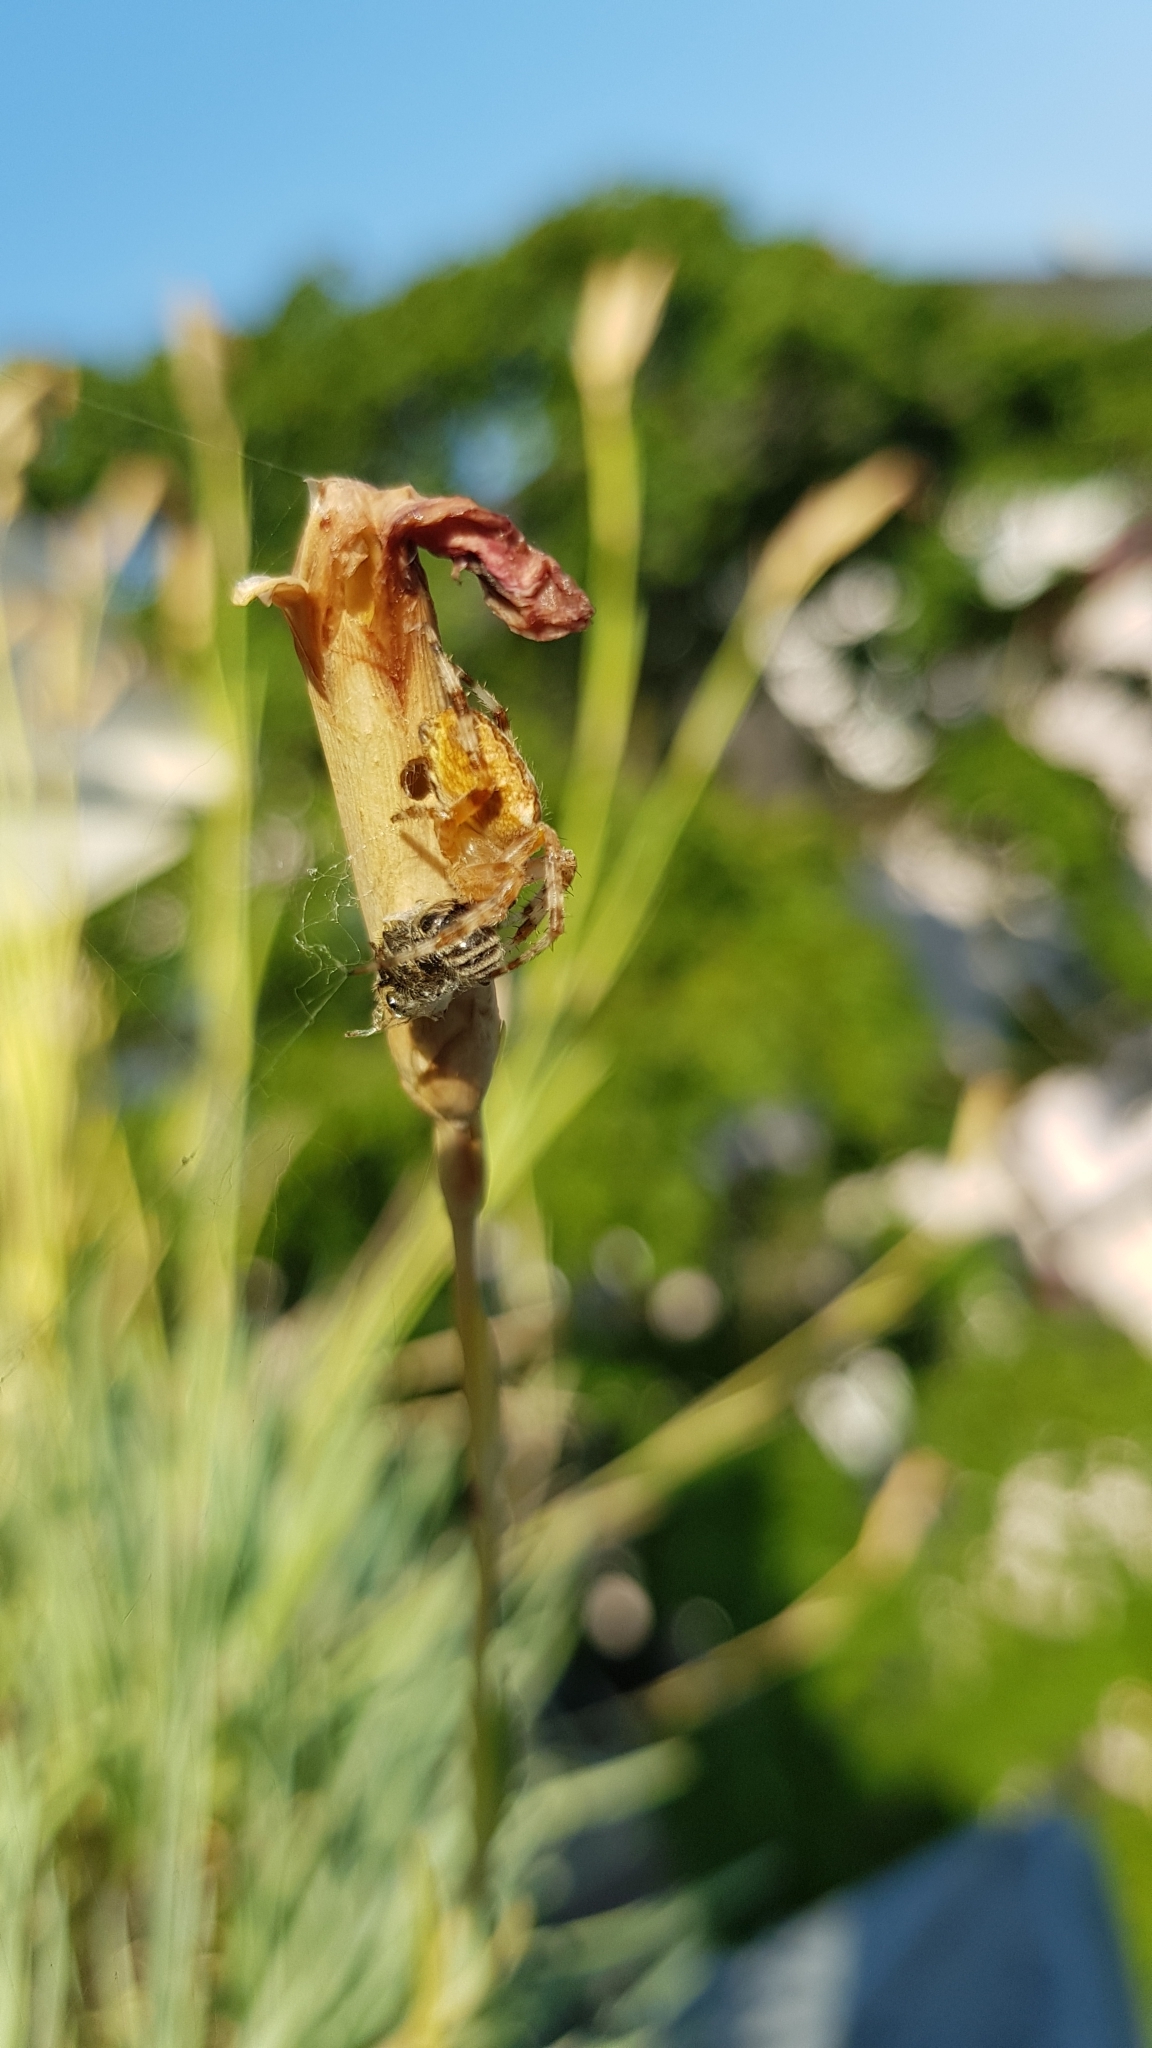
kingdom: Animalia
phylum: Arthropoda
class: Arachnida
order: Araneae
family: Araneidae
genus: Araneus
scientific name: Araneus diadematus
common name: Cross orbweaver
